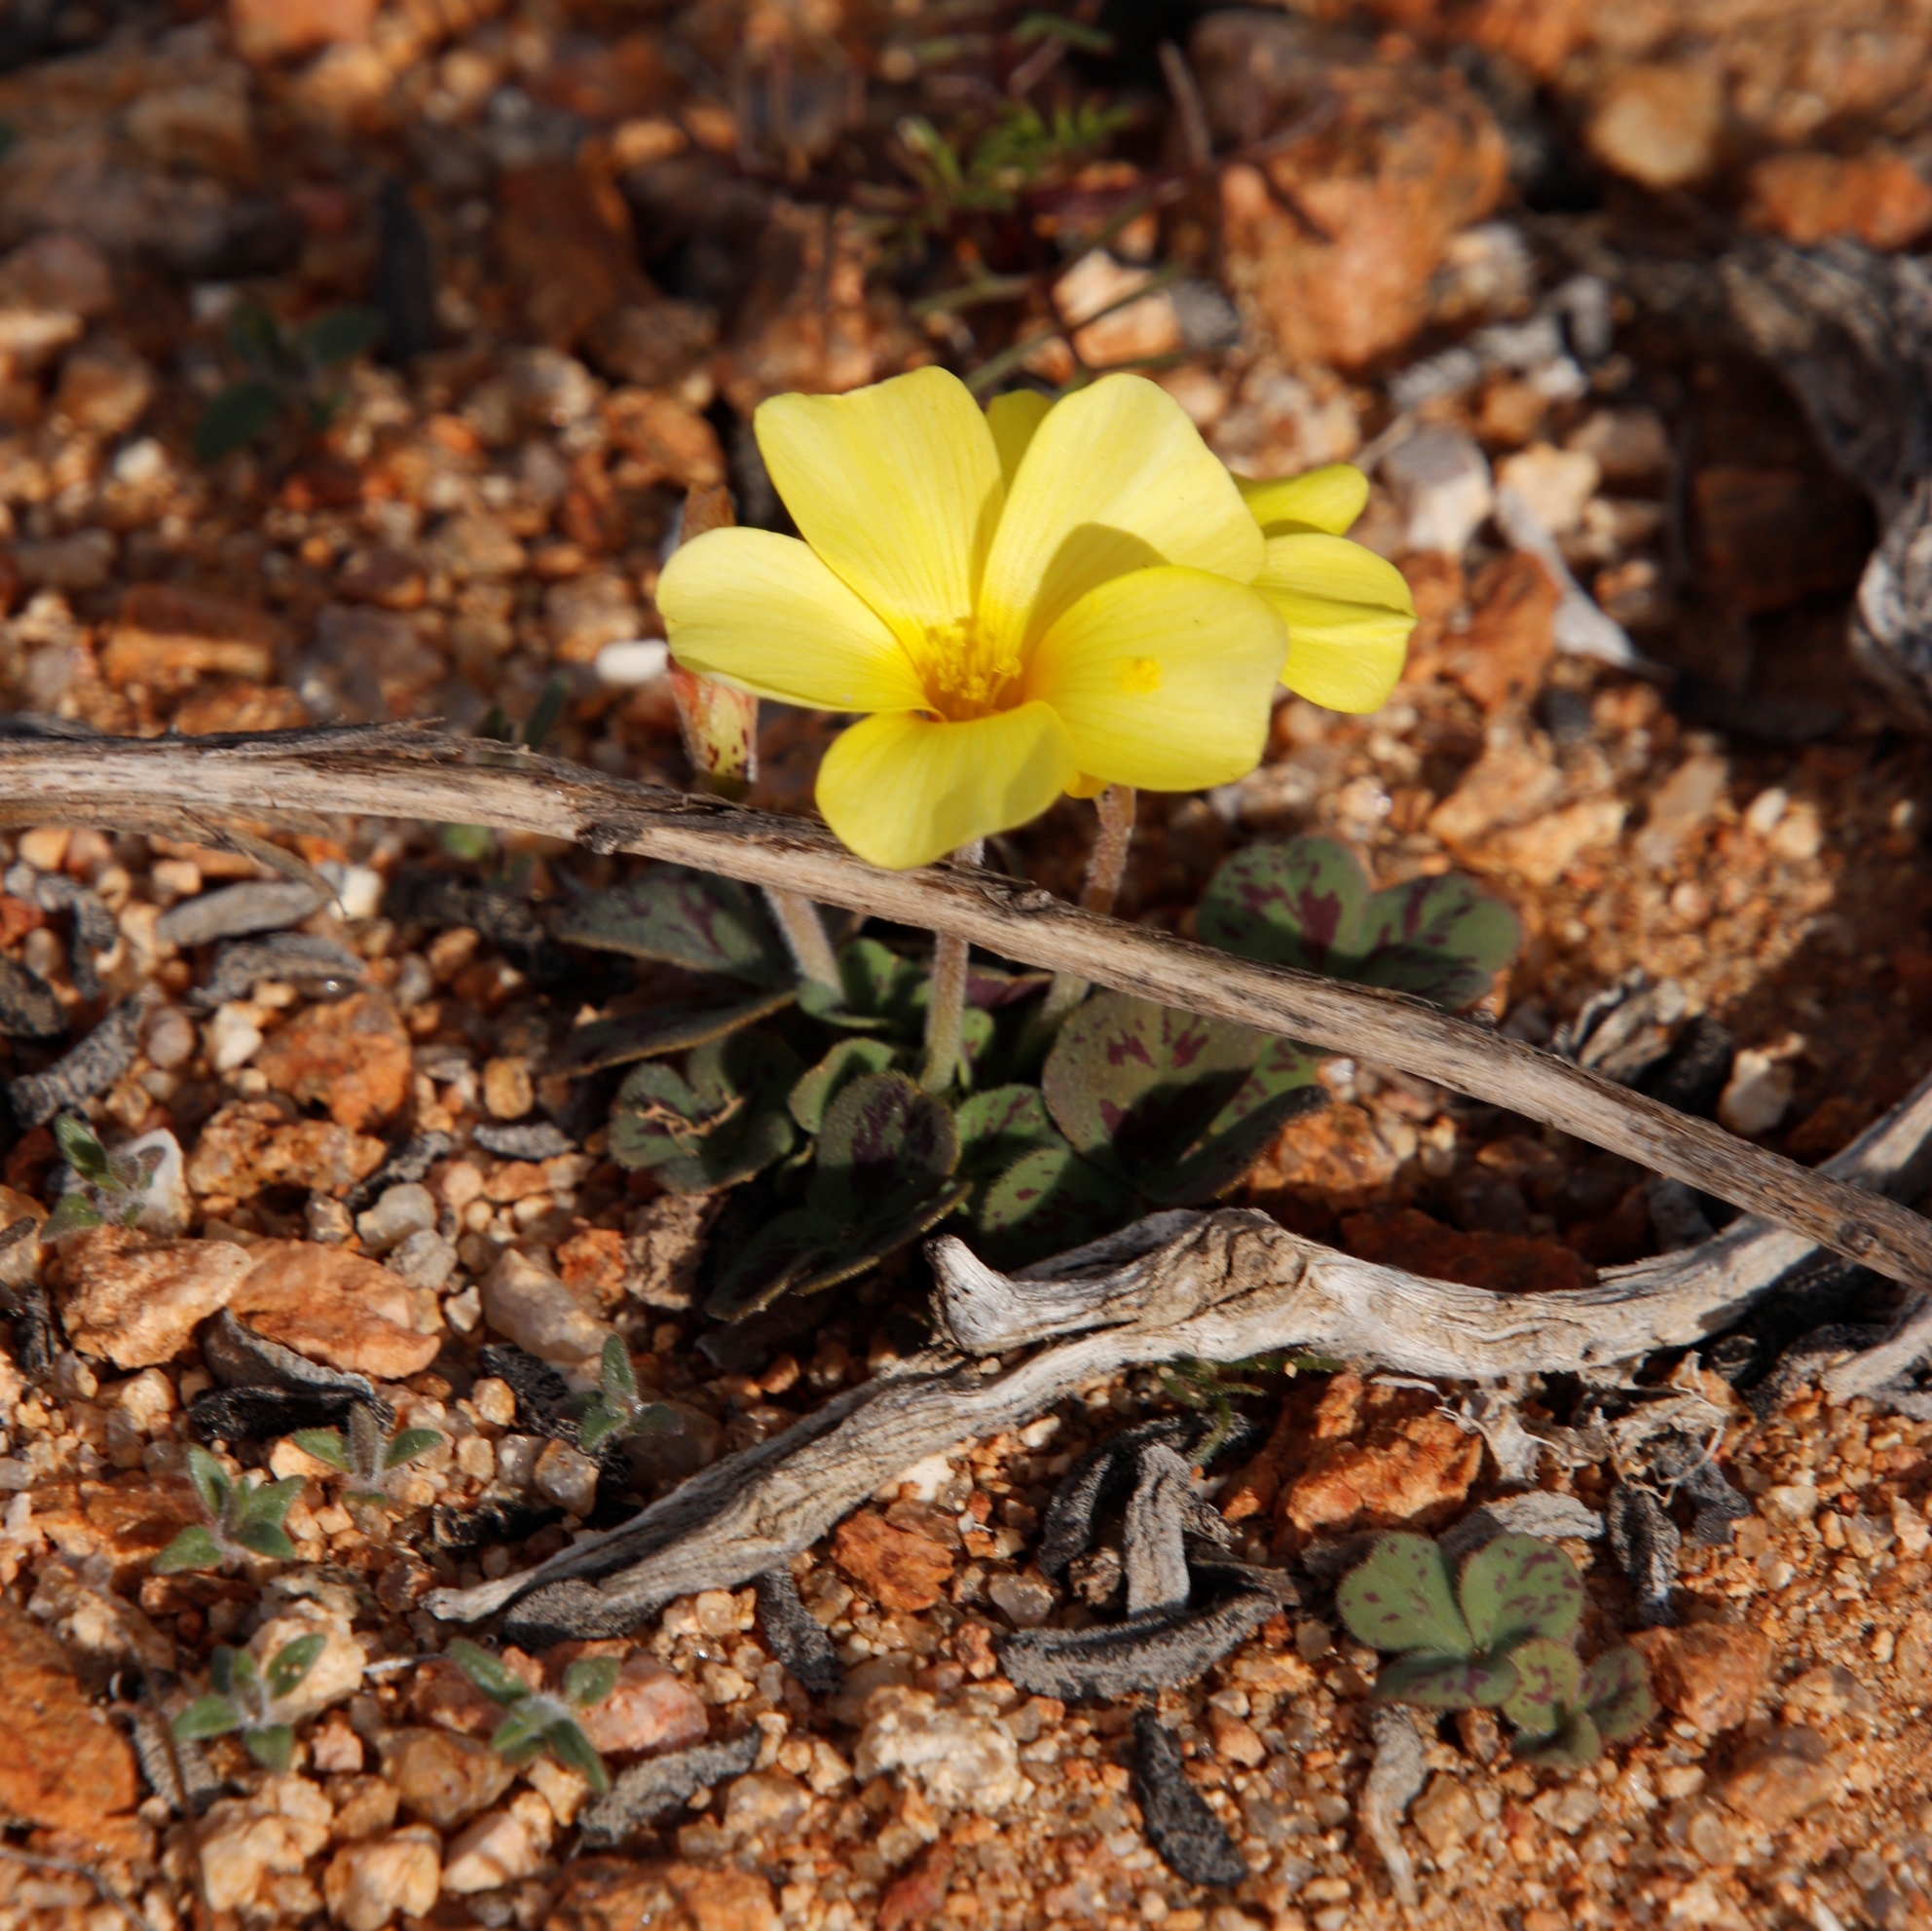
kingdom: Plantae
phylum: Tracheophyta
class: Magnoliopsida
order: Oxalidales
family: Oxalidaceae
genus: Oxalis
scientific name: Oxalis obtusa
